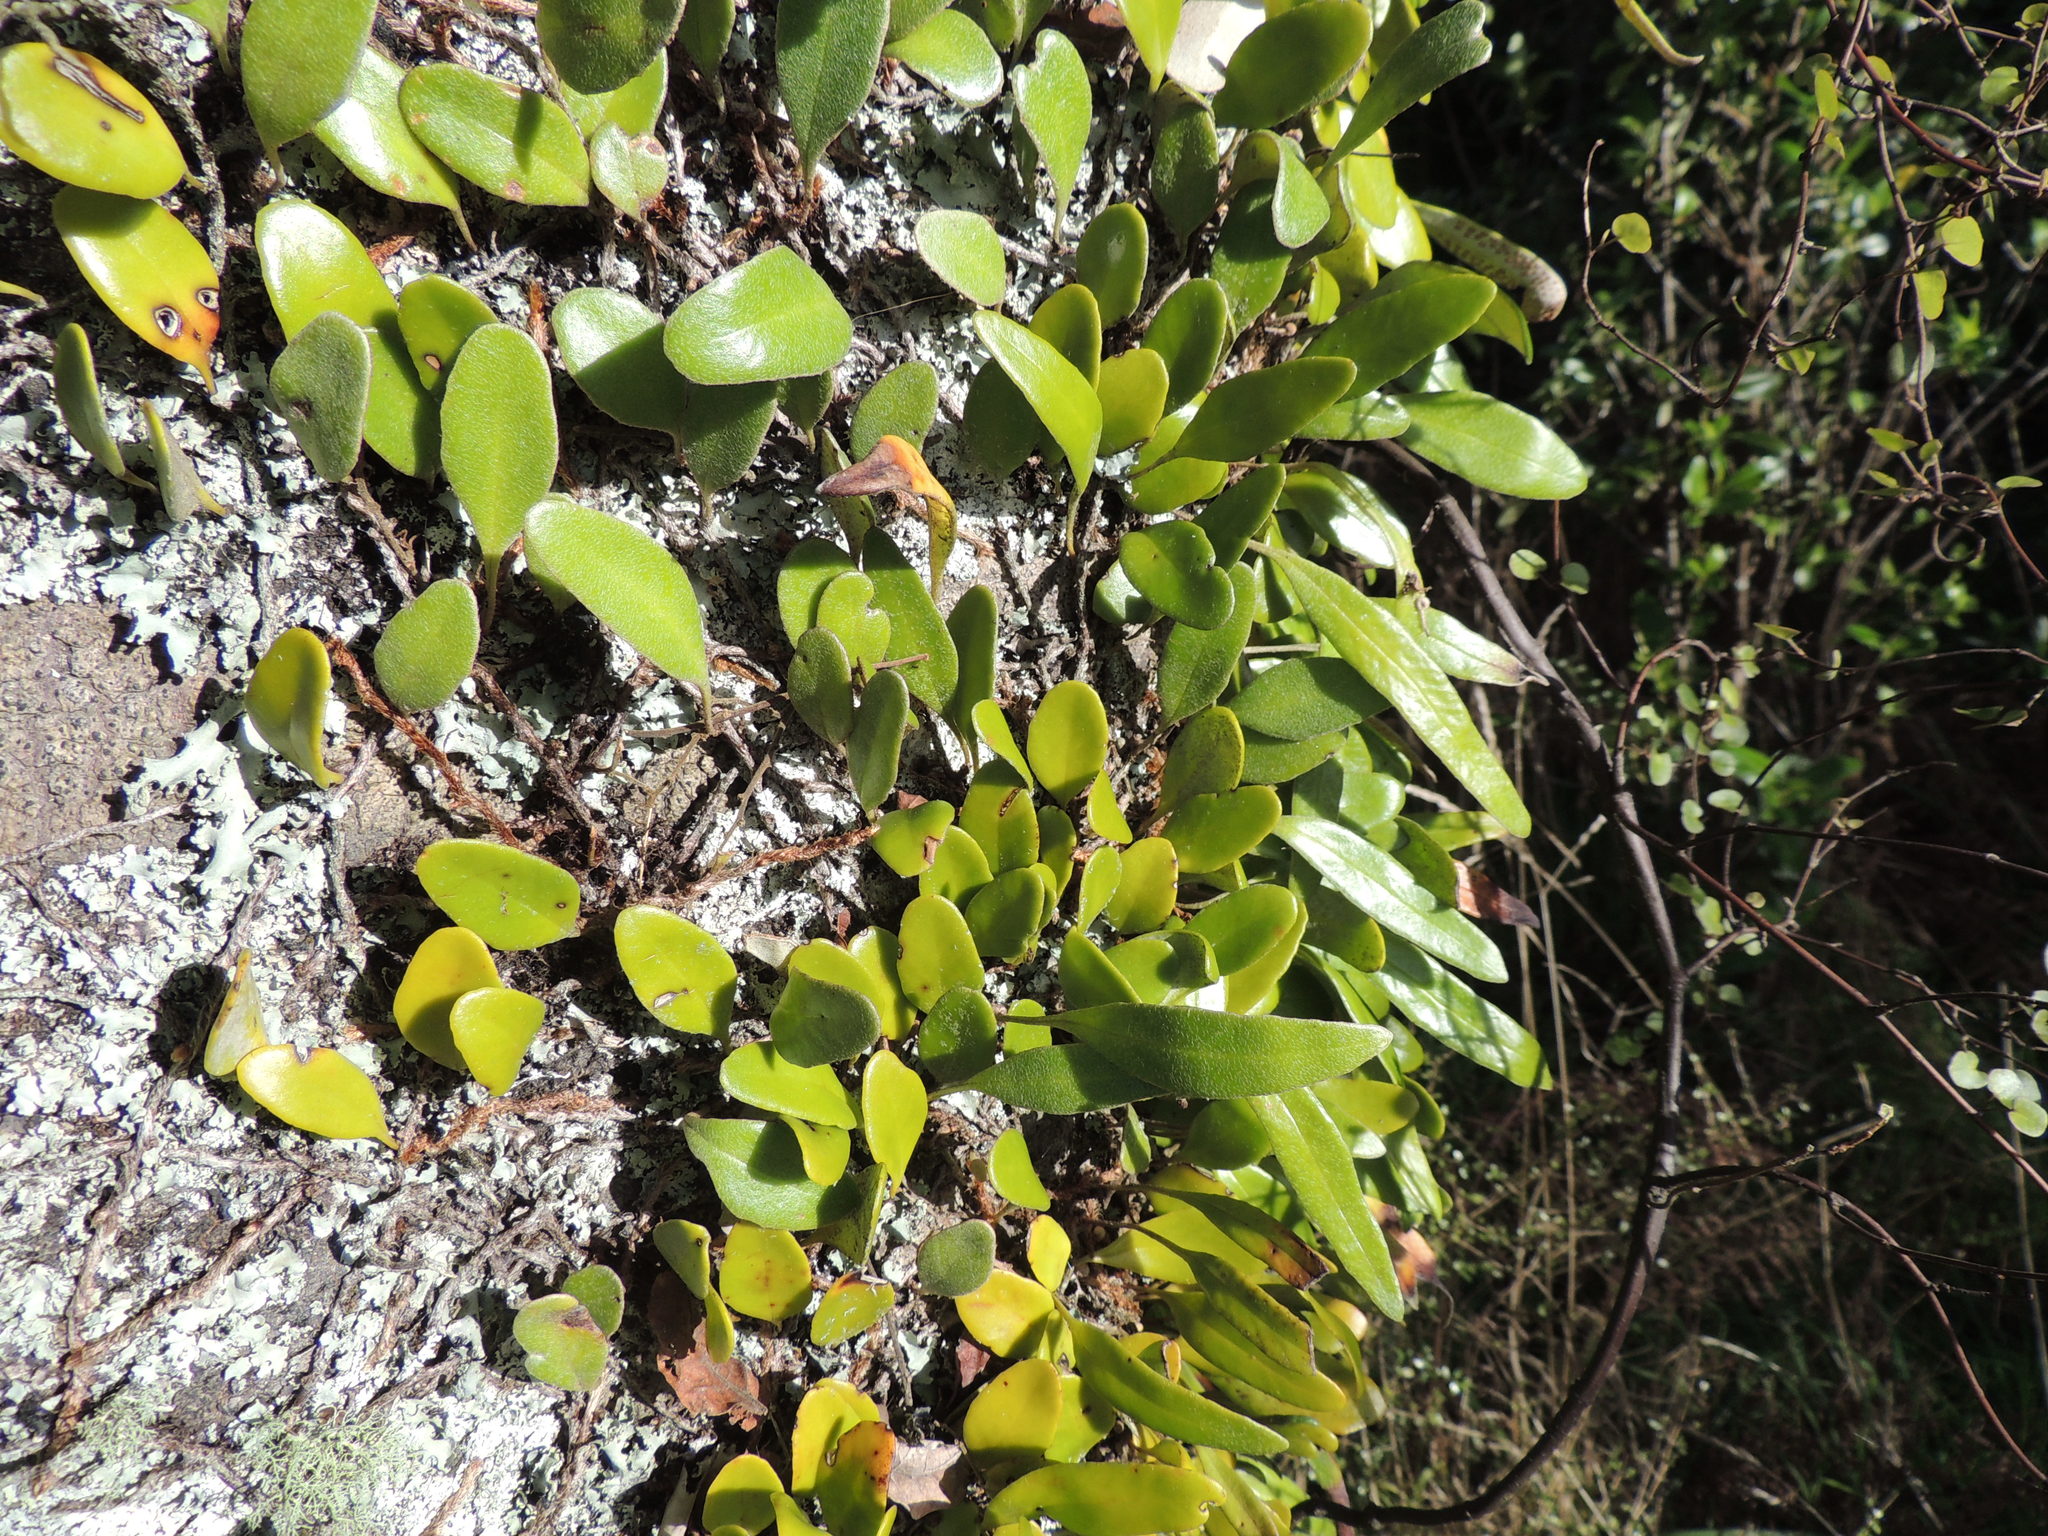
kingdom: Plantae
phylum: Tracheophyta
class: Polypodiopsida
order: Polypodiales
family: Polypodiaceae
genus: Pyrrosia
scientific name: Pyrrosia eleagnifolia
